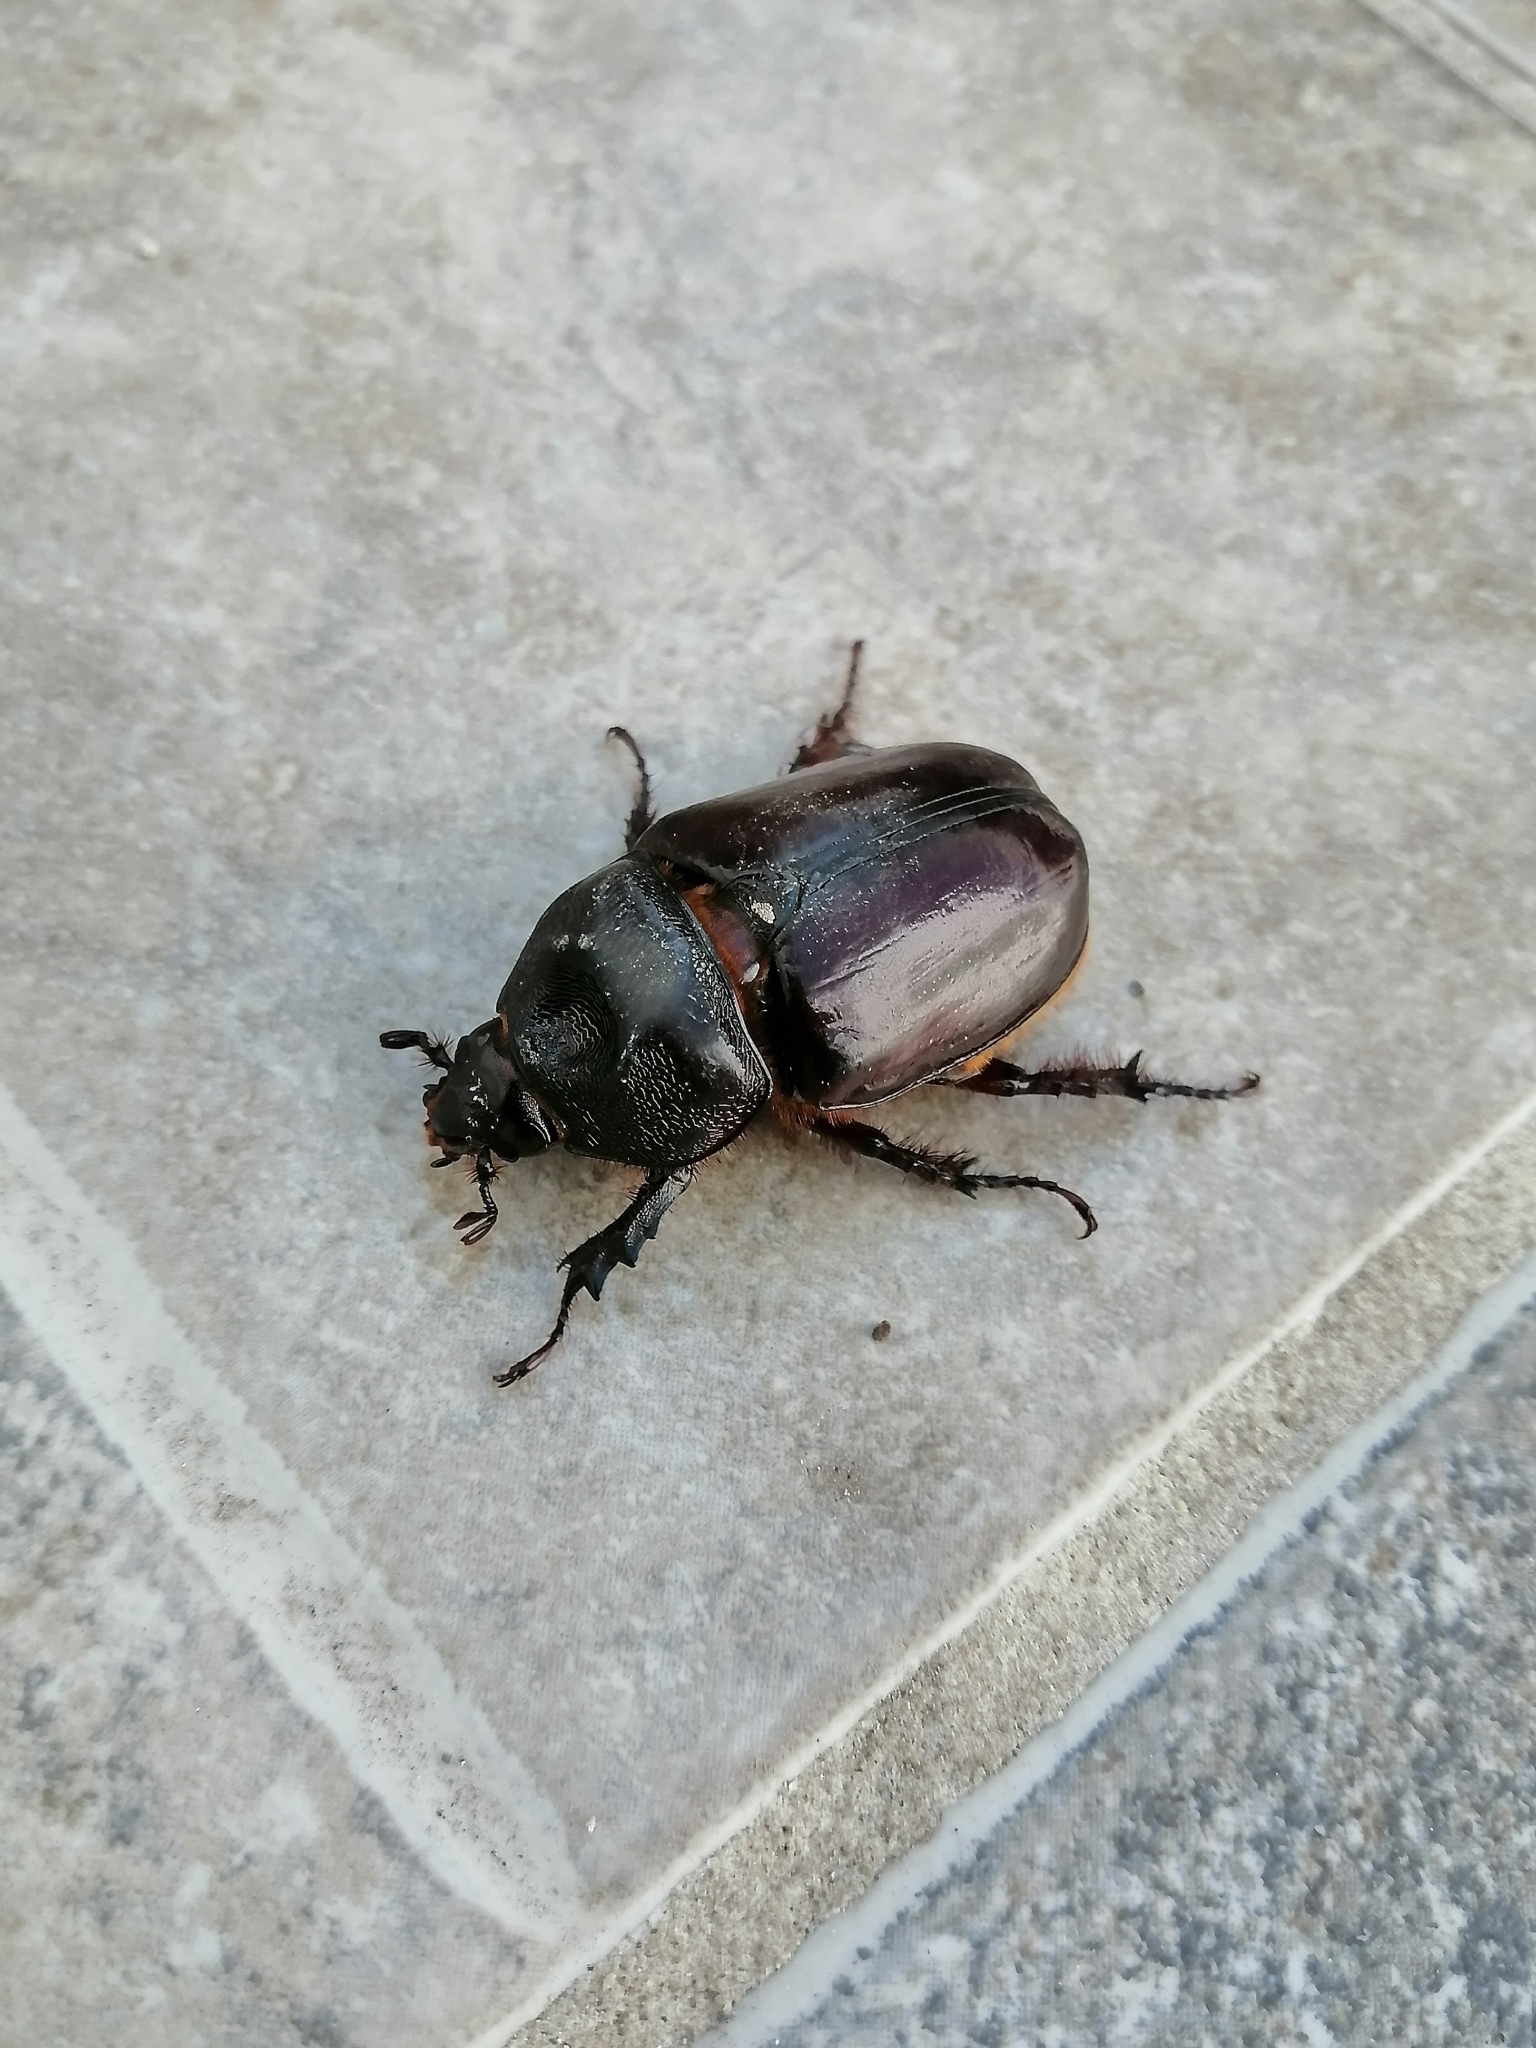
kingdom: Animalia
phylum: Arthropoda
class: Insecta
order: Coleoptera
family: Scarabaeidae
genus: Strategus
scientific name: Strategus aloeus
